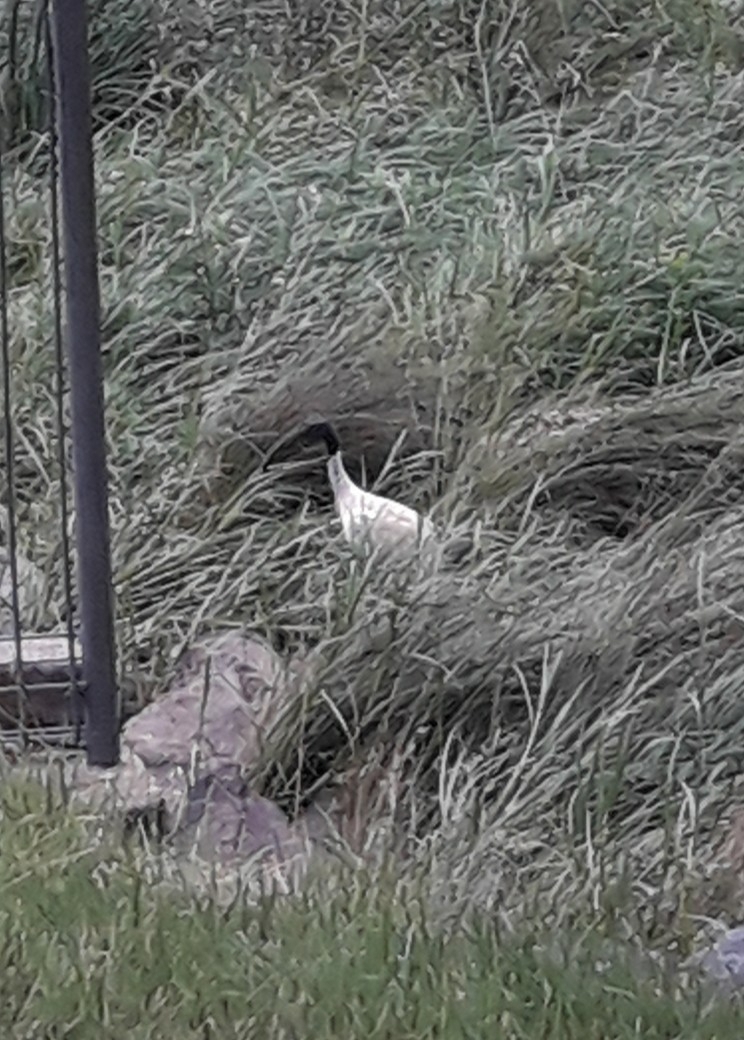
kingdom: Animalia
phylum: Chordata
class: Aves
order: Pelecaniformes
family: Threskiornithidae
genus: Threskiornis
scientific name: Threskiornis molucca
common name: Australian white ibis
